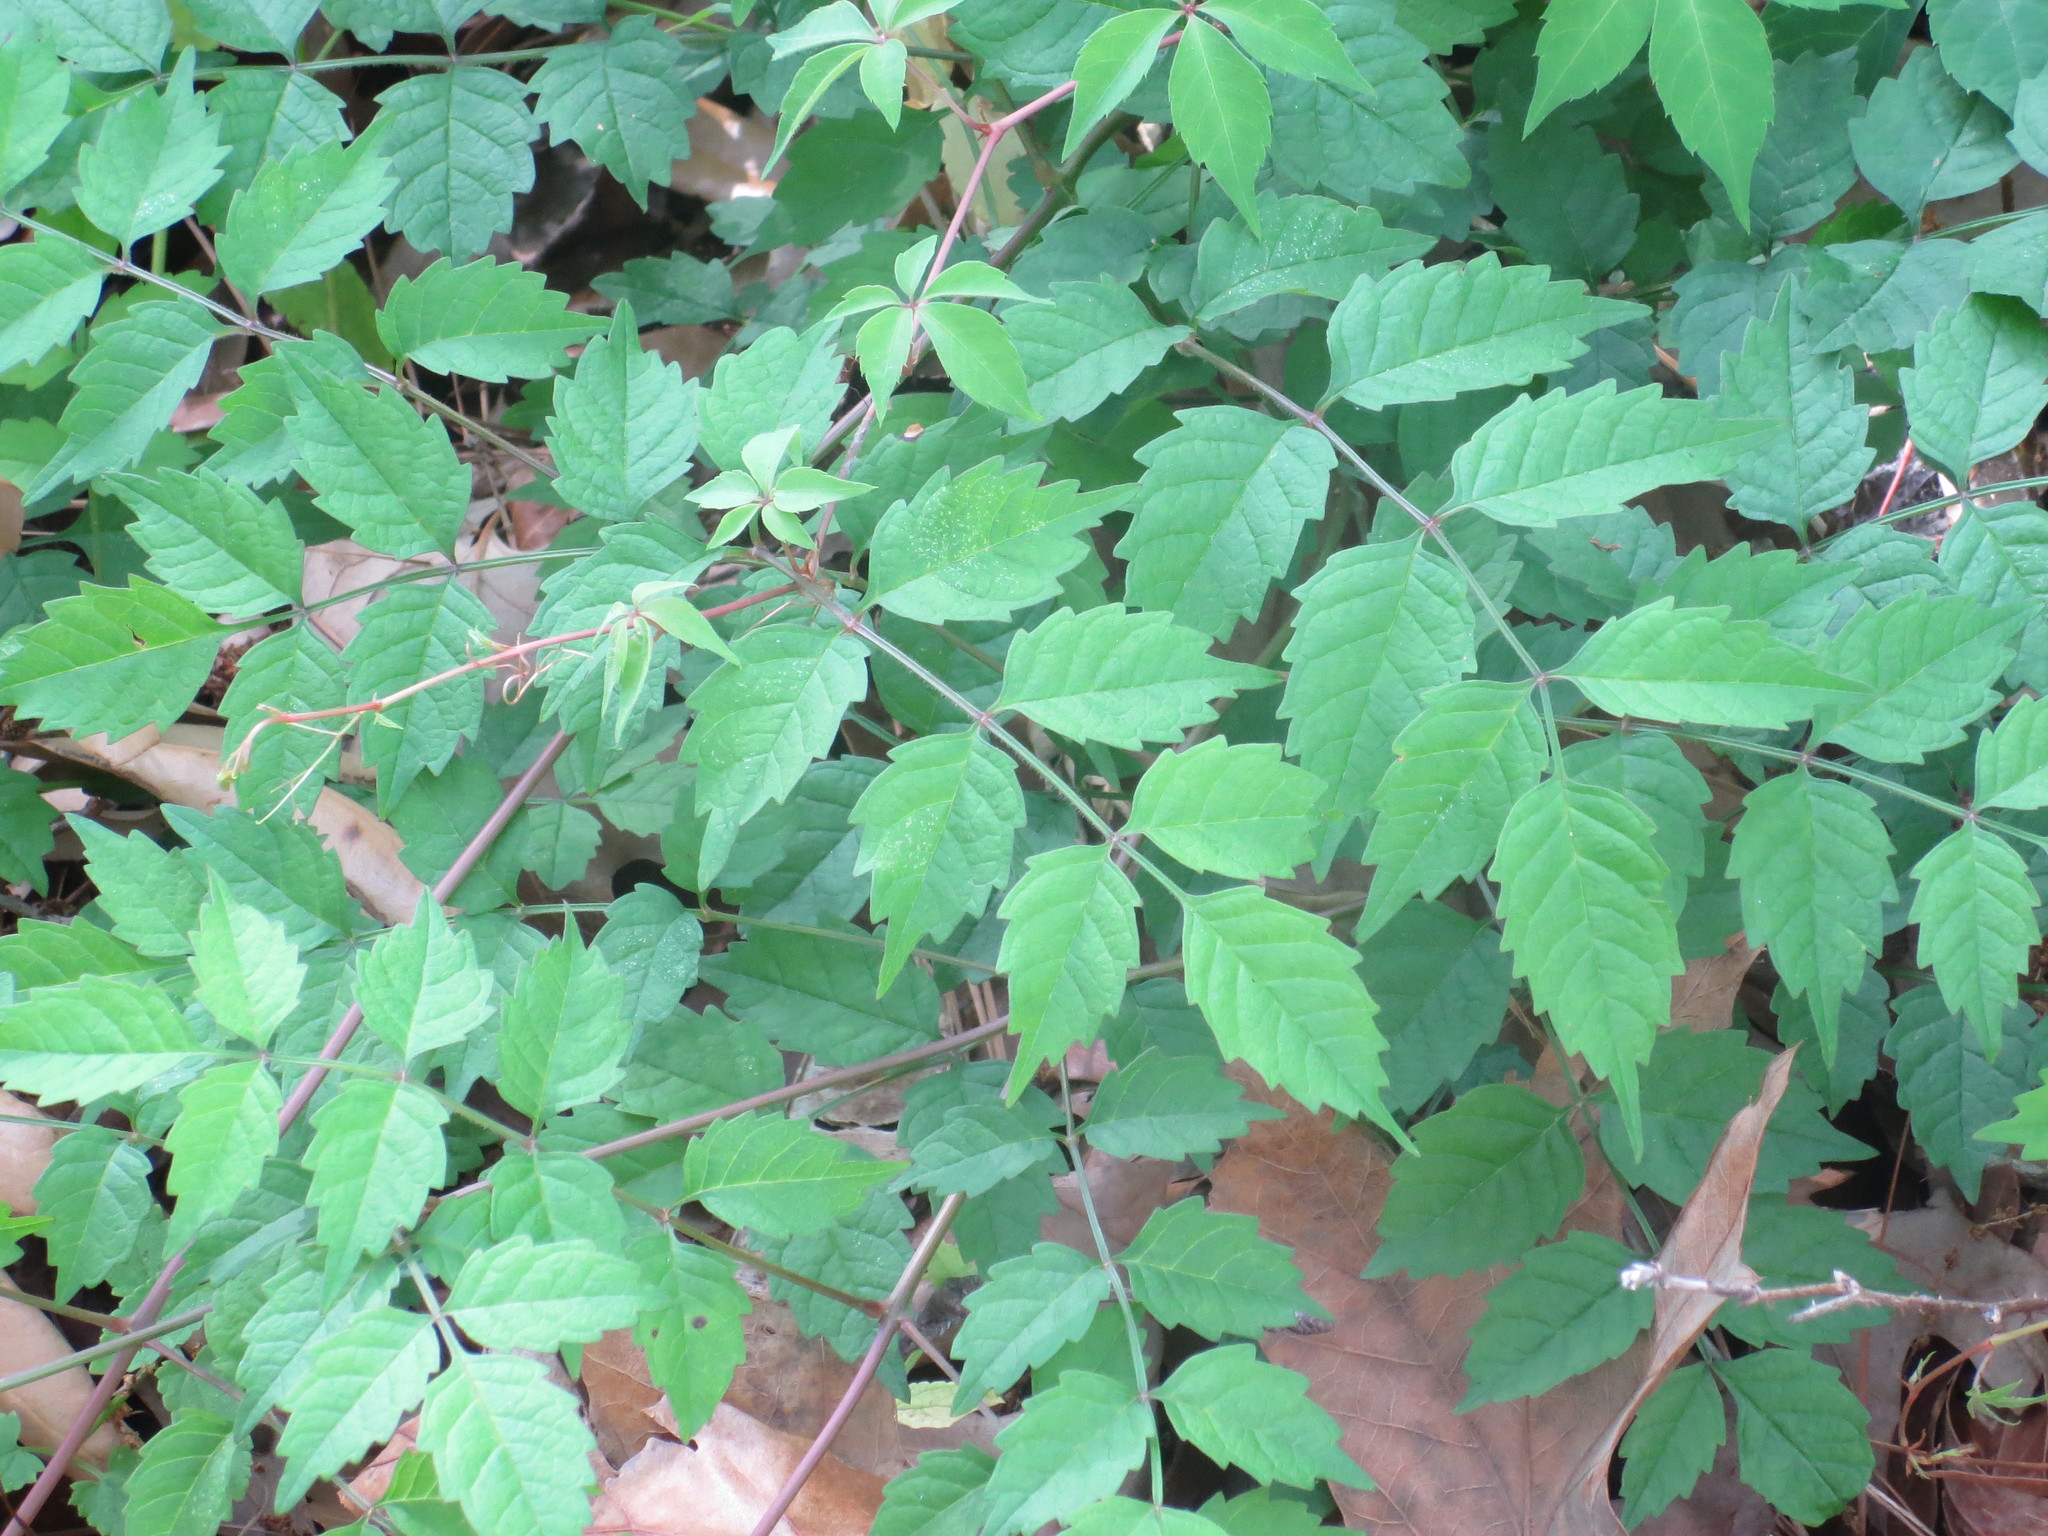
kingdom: Plantae
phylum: Tracheophyta
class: Magnoliopsida
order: Lamiales
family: Bignoniaceae
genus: Campsis
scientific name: Campsis radicans
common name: Trumpet-creeper
